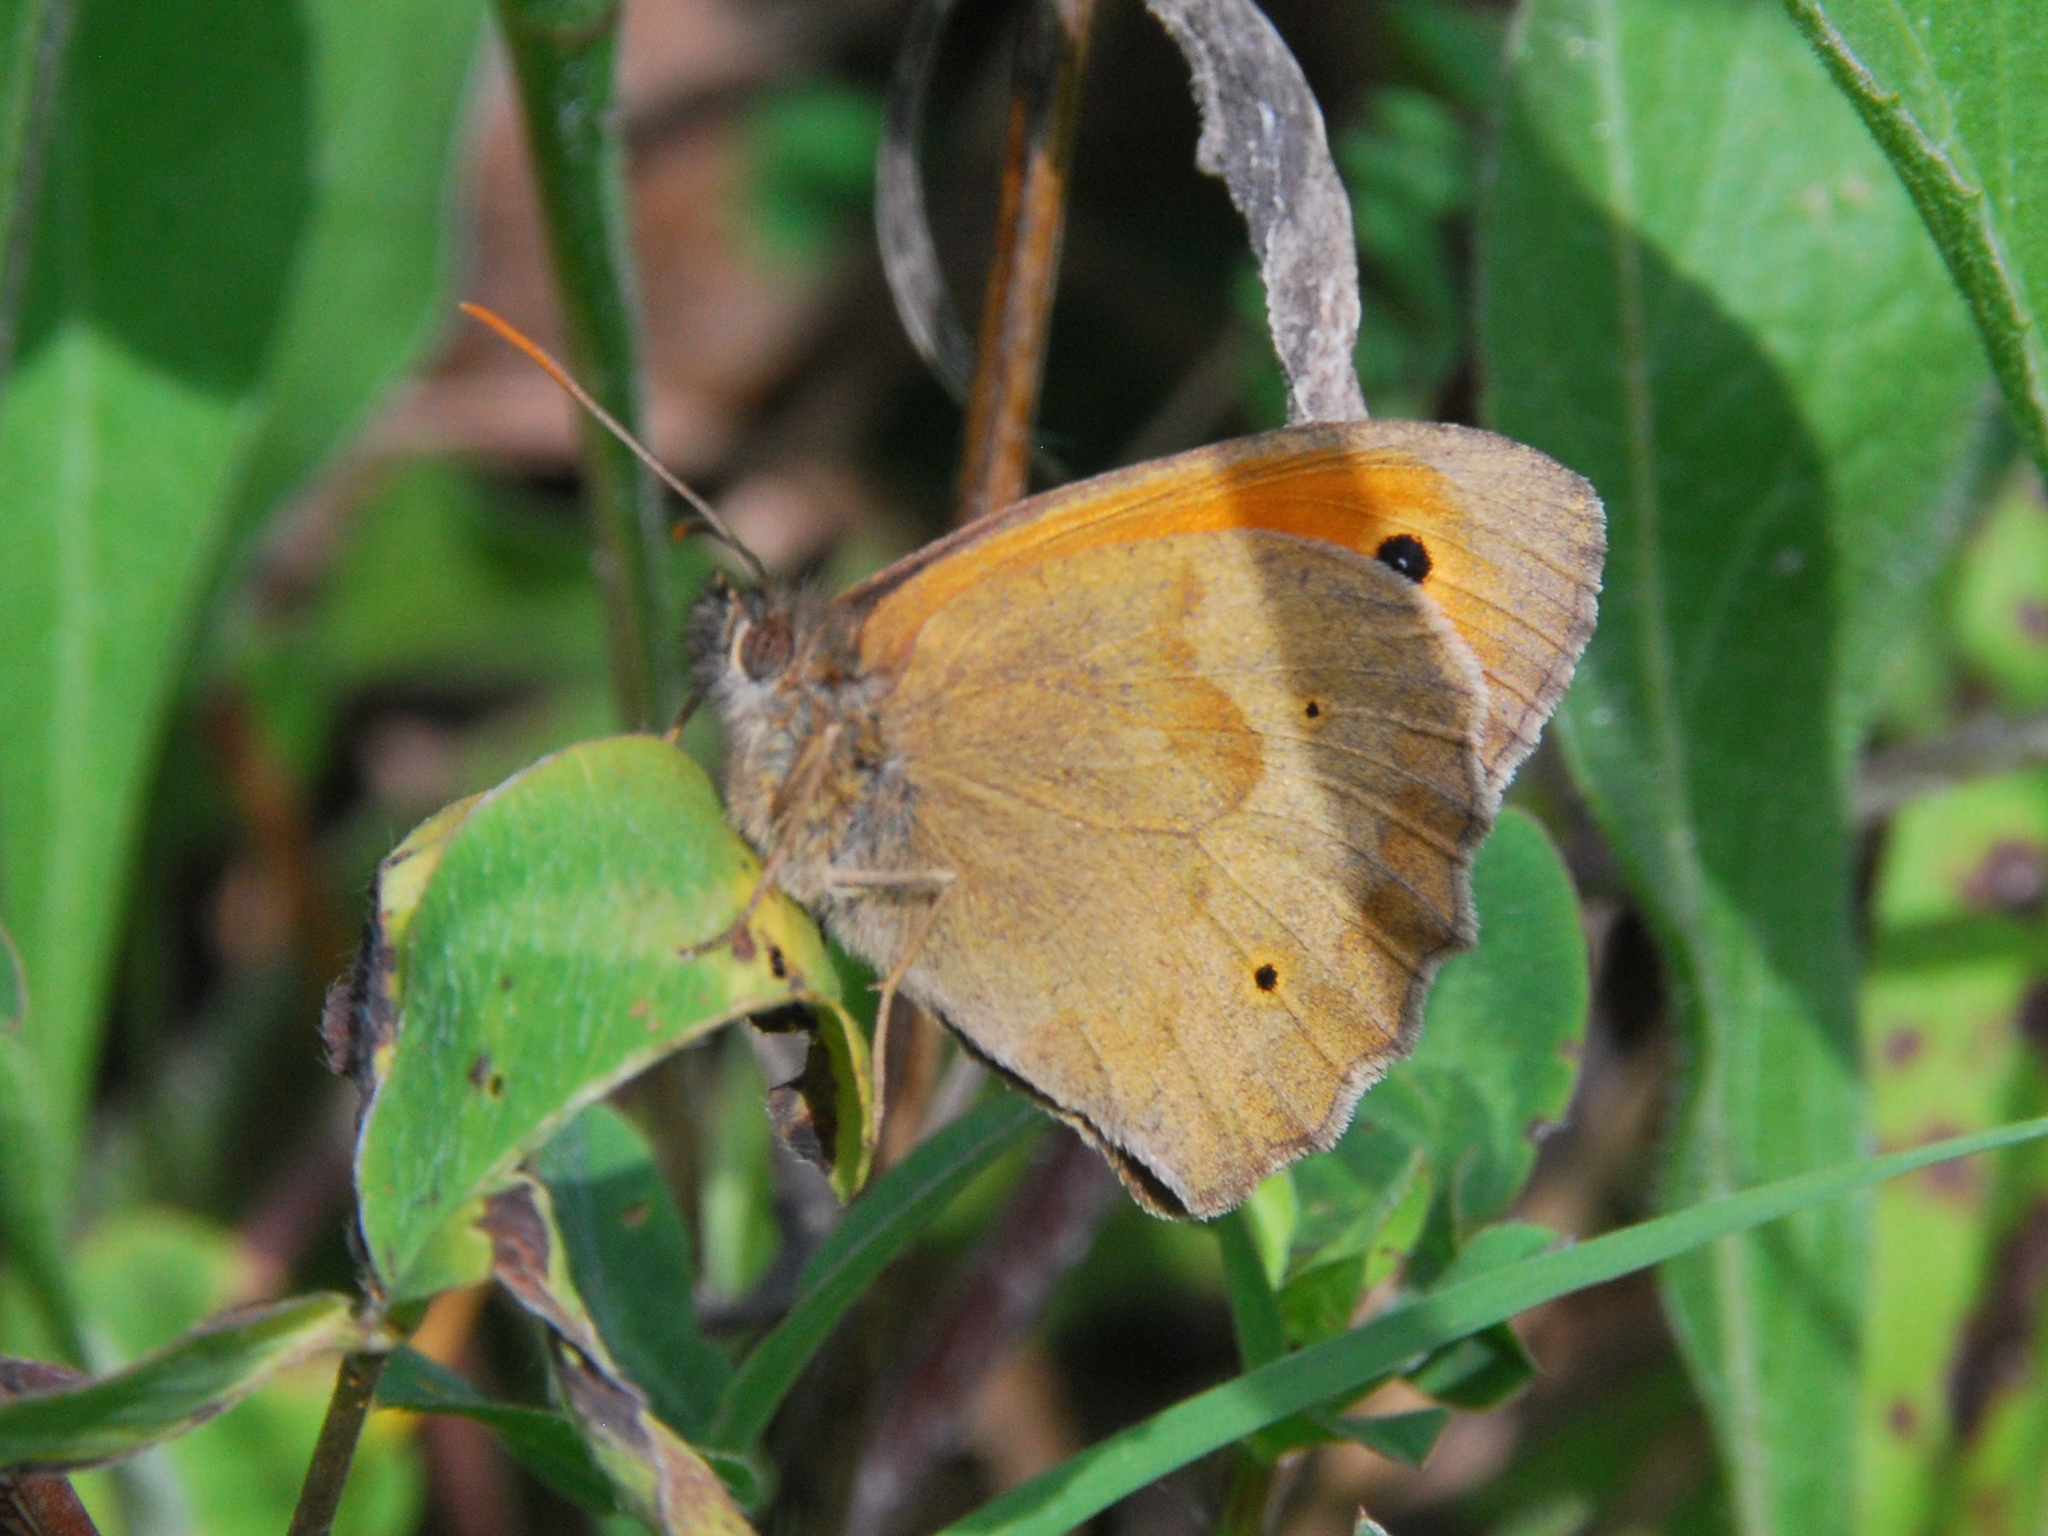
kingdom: Animalia
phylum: Arthropoda
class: Insecta
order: Lepidoptera
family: Nymphalidae
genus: Maniola
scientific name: Maniola jurtina
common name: Meadow brown
